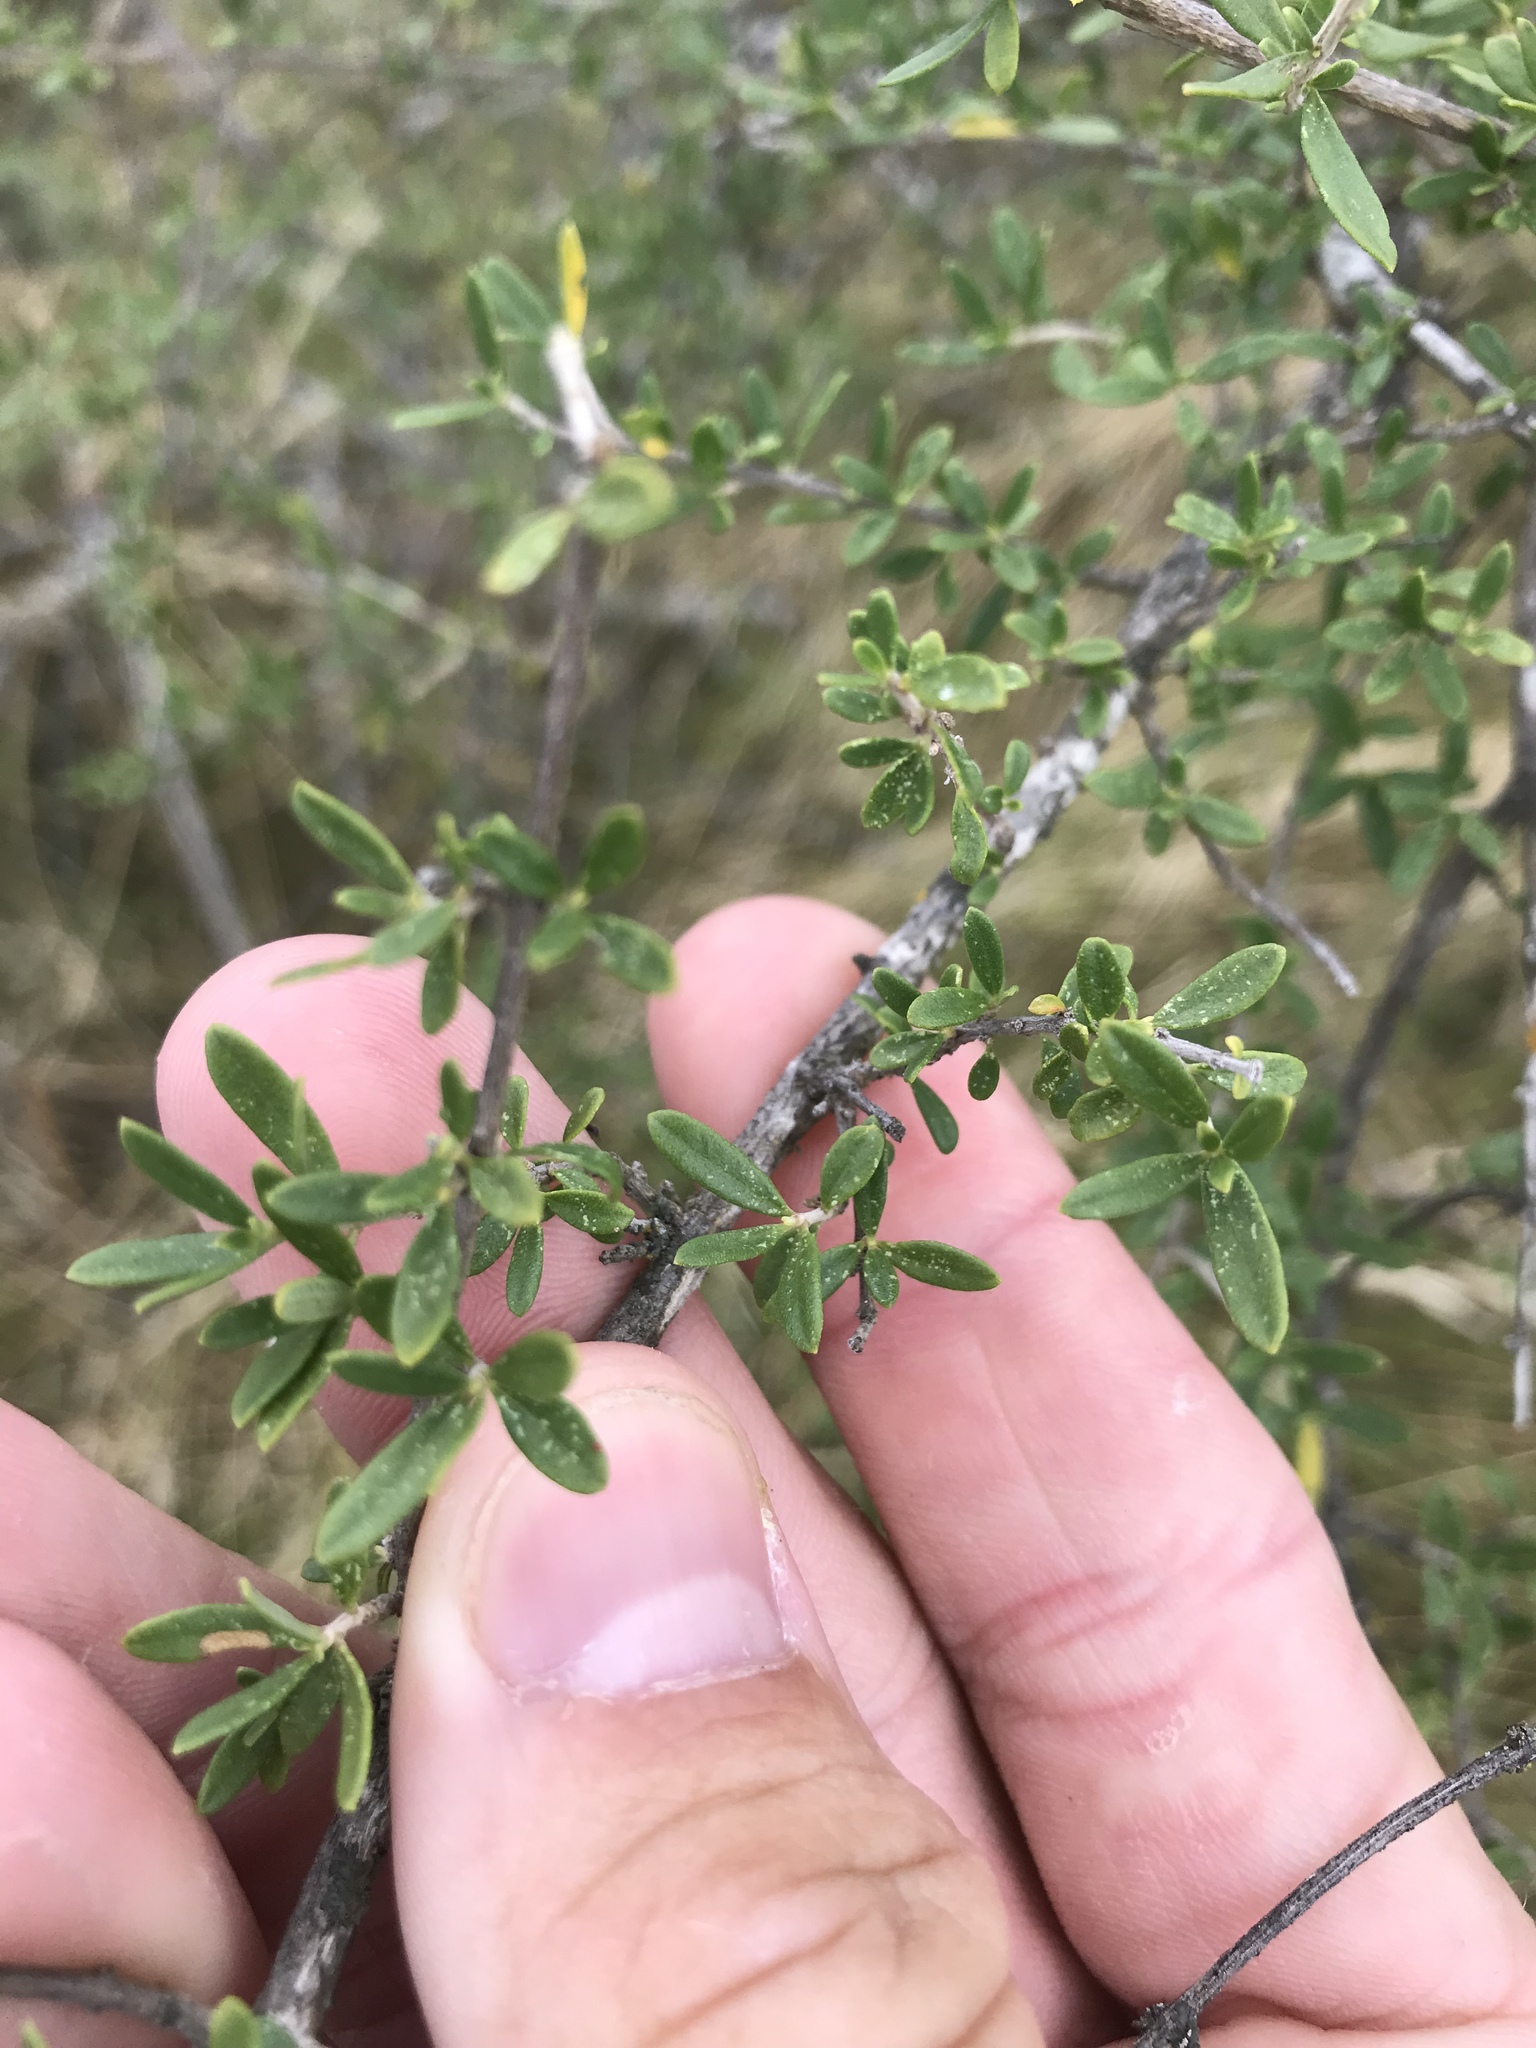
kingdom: Plantae
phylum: Tracheophyta
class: Magnoliopsida
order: Lamiales
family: Verbenaceae
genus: Aloysia
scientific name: Aloysia gratissima
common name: Common bee-brush
